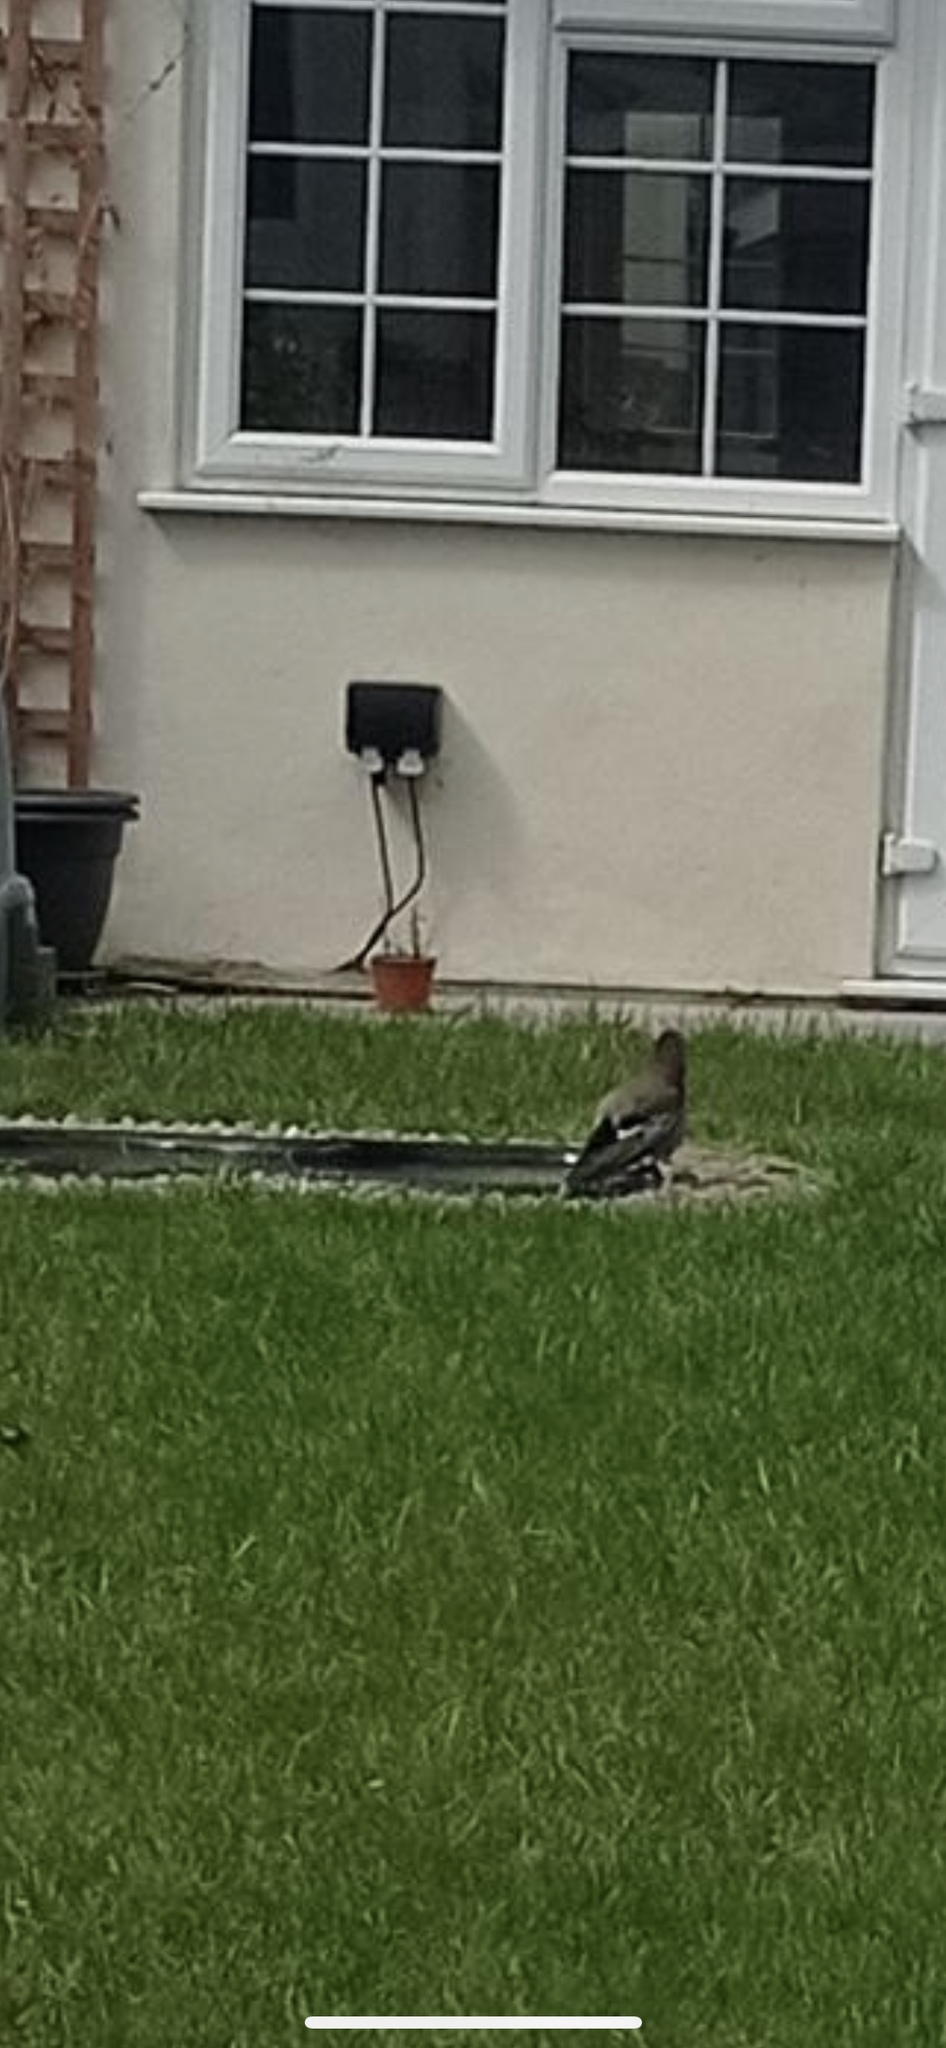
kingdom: Animalia
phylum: Chordata
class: Aves
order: Passeriformes
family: Corvidae
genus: Garrulus
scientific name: Garrulus glandarius
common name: Eurasian jay
